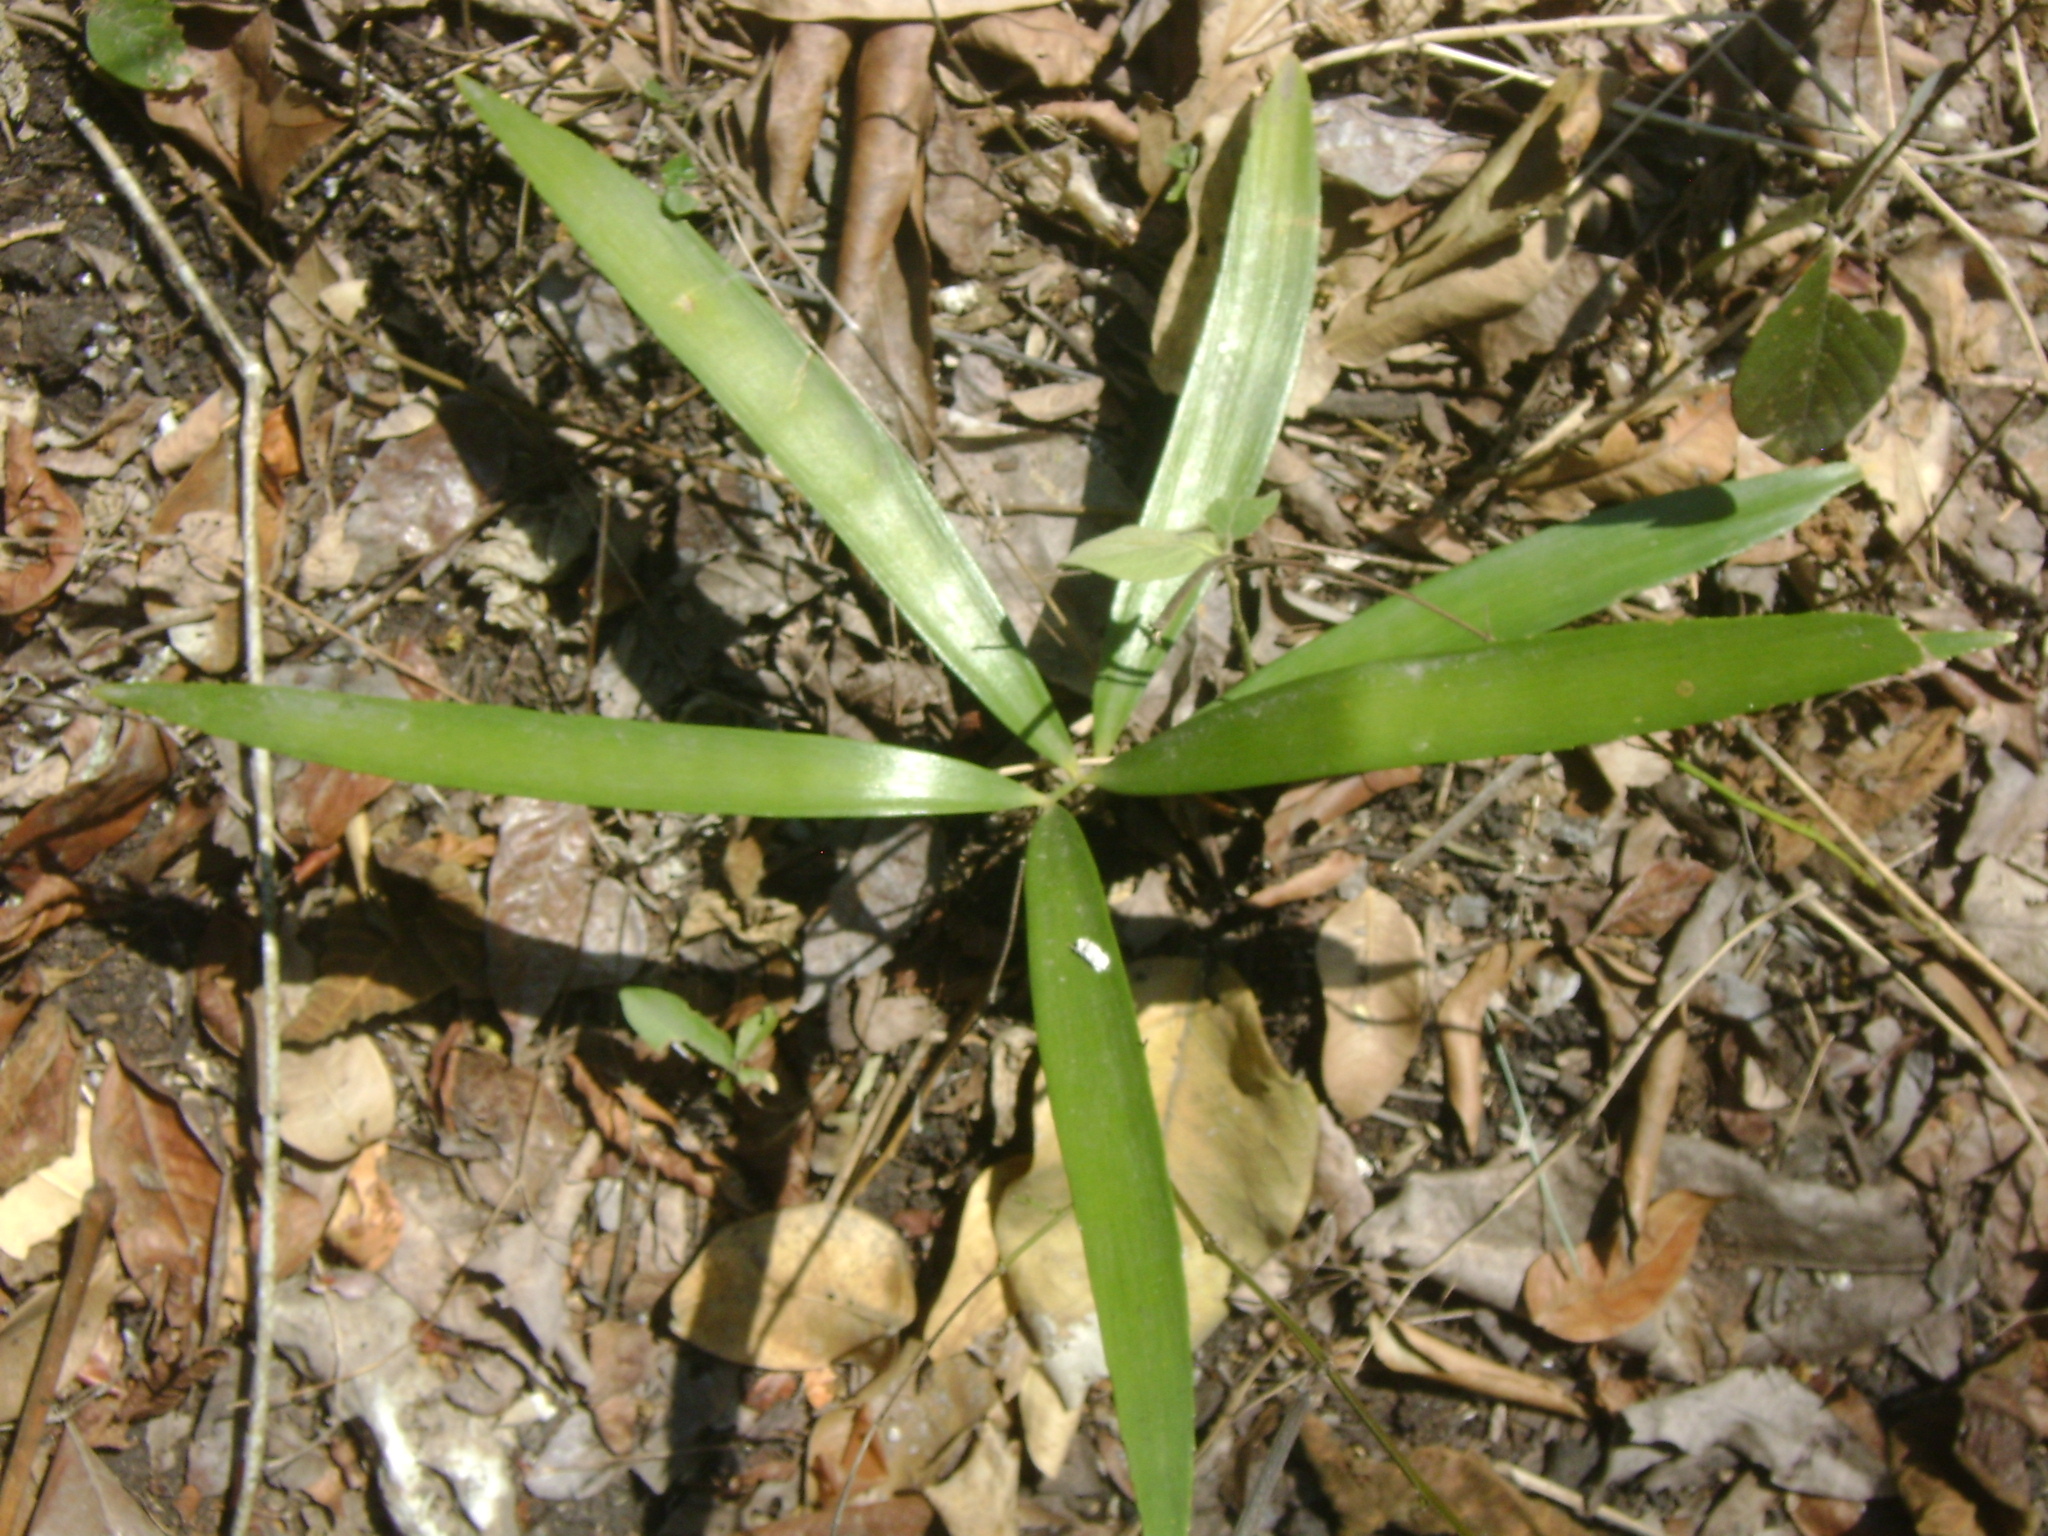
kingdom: Plantae
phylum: Tracheophyta
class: Cycadopsida
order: Cycadales
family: Zamiaceae
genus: Zamia
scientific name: Zamia loddigesii
